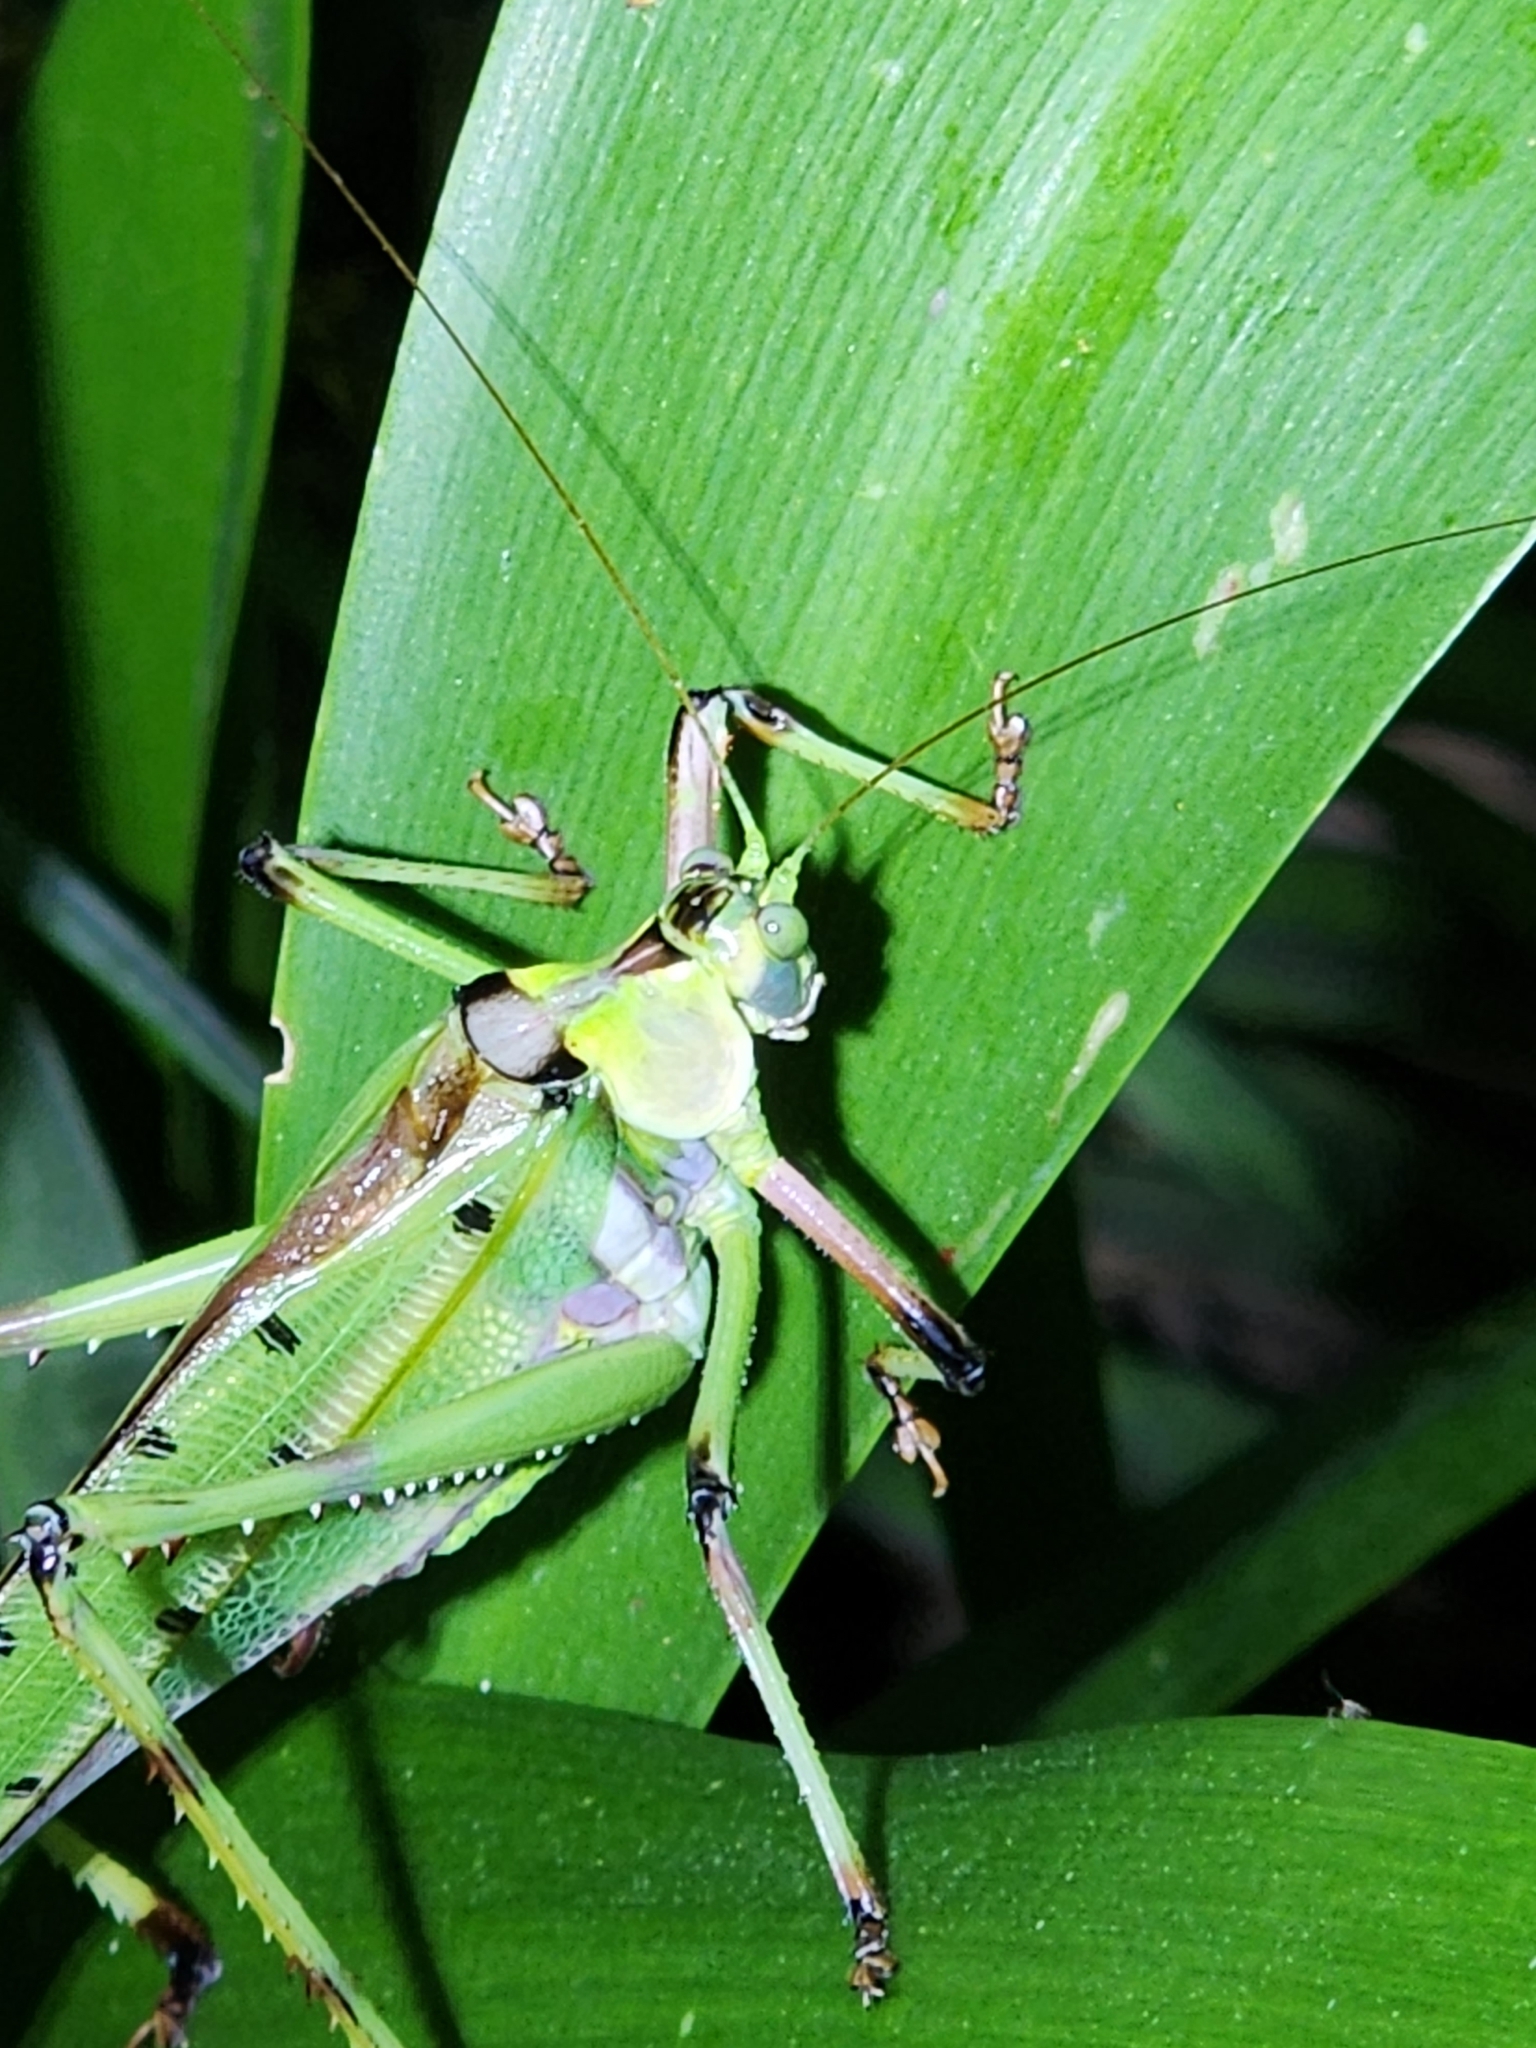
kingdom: Animalia
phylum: Arthropoda
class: Insecta
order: Orthoptera
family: Tettigoniidae
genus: Ephippitytha
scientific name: Ephippitytha trigintiduoguttata
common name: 32-spotted katydid
